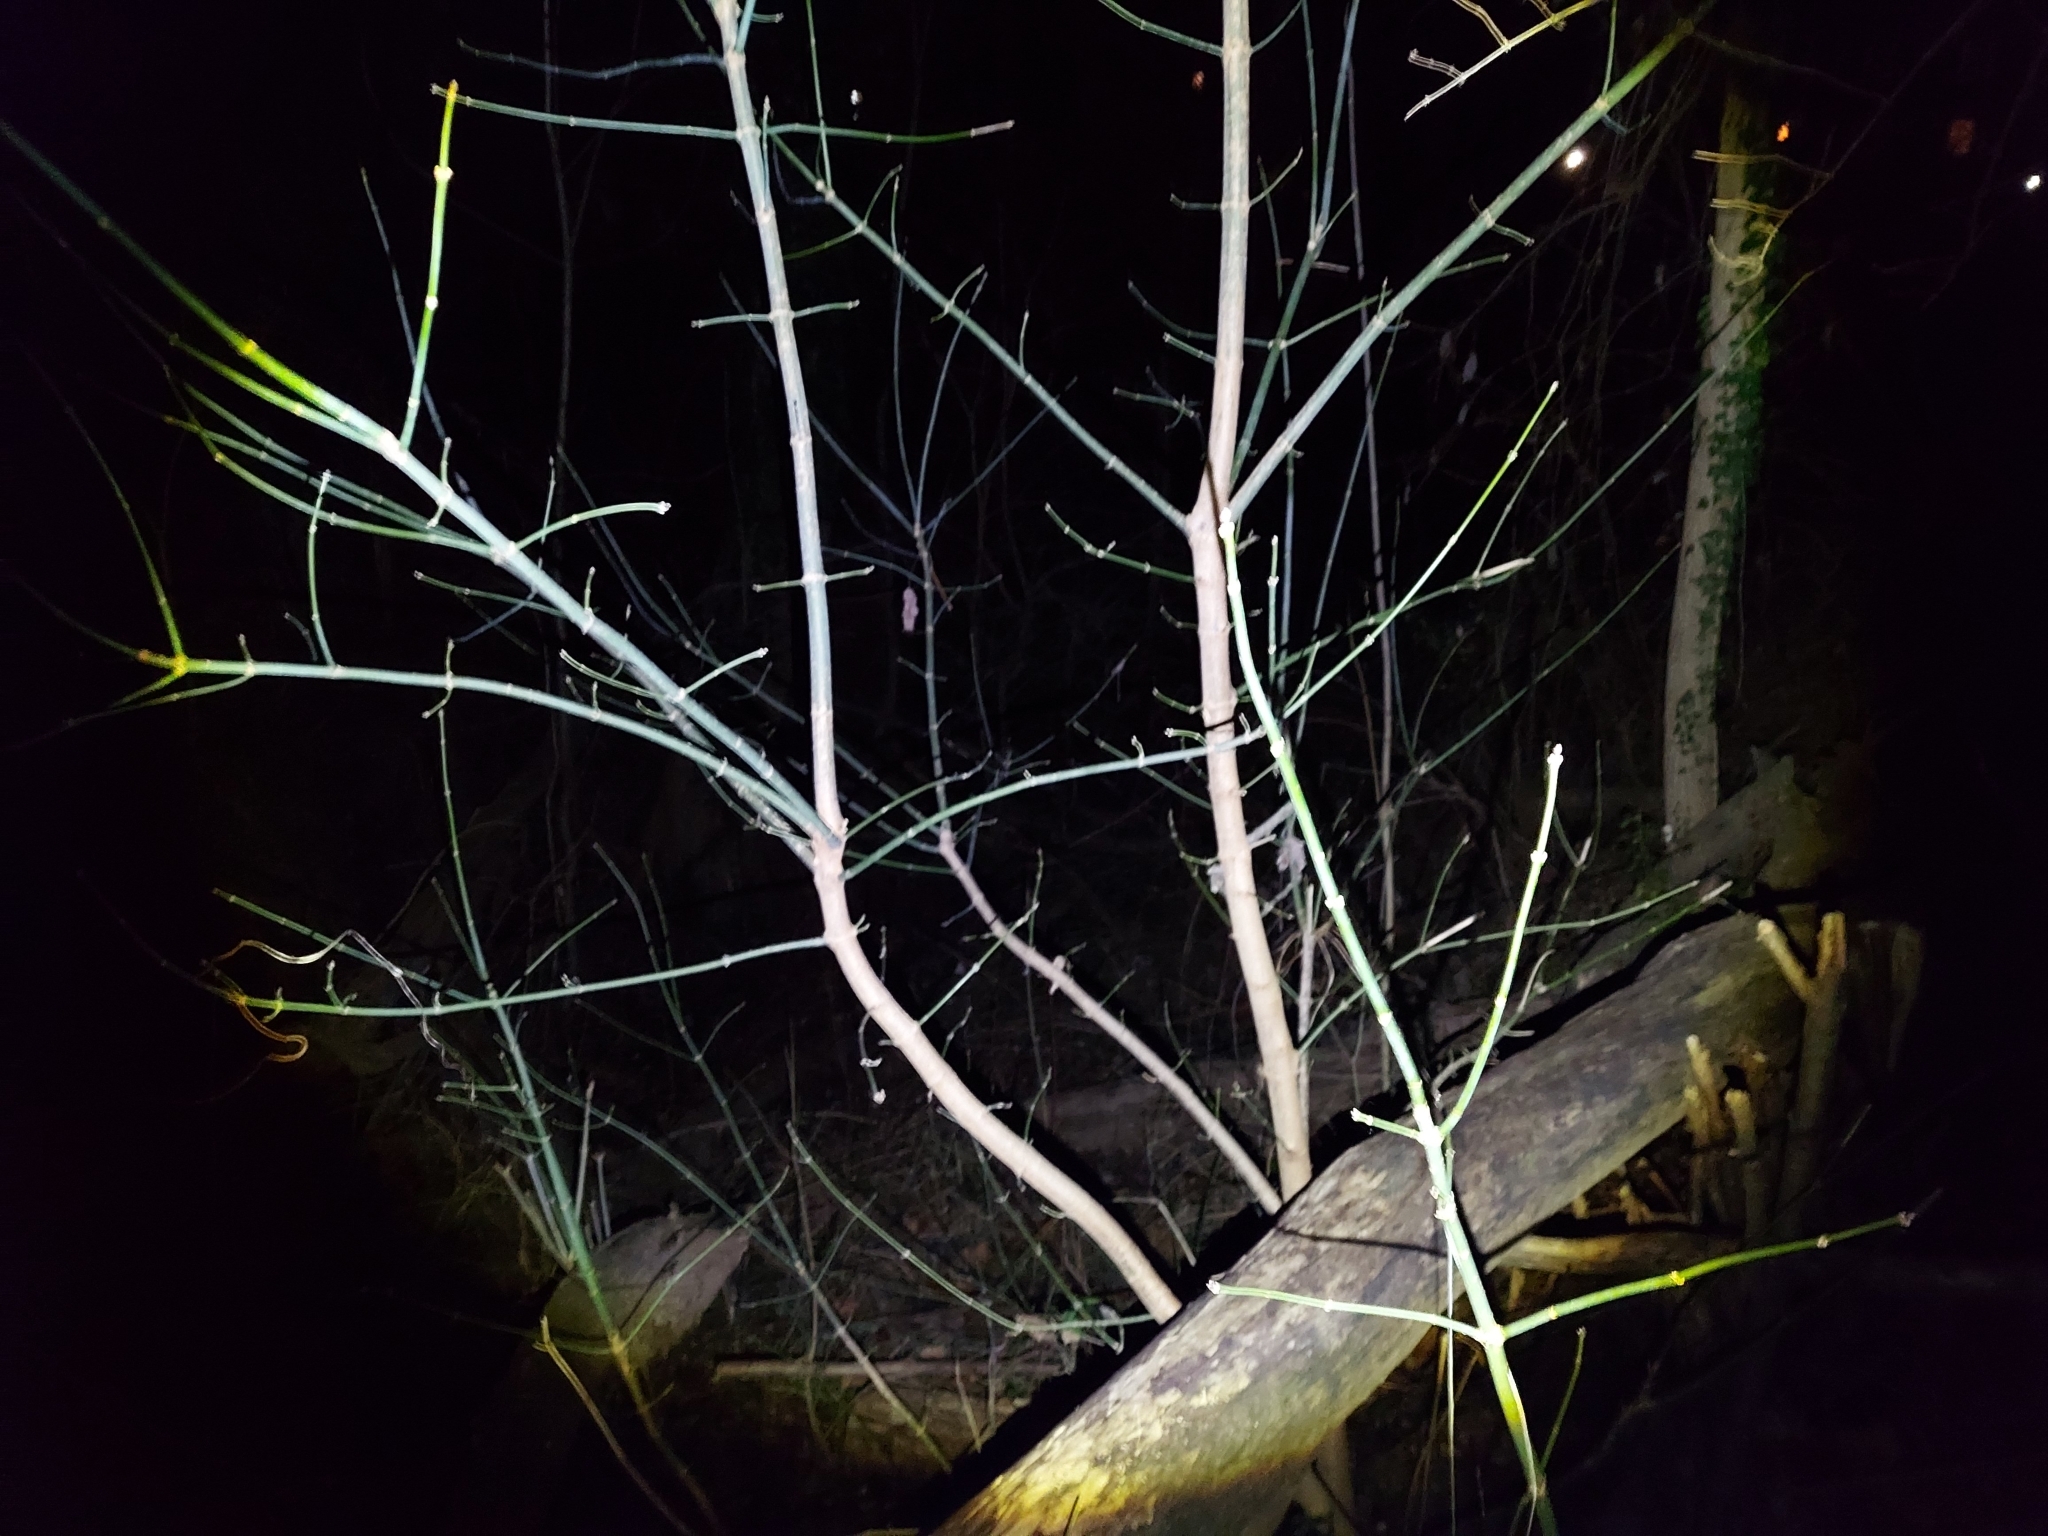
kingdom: Plantae
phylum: Tracheophyta
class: Magnoliopsida
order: Sapindales
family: Sapindaceae
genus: Acer
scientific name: Acer negundo
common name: Ashleaf maple
